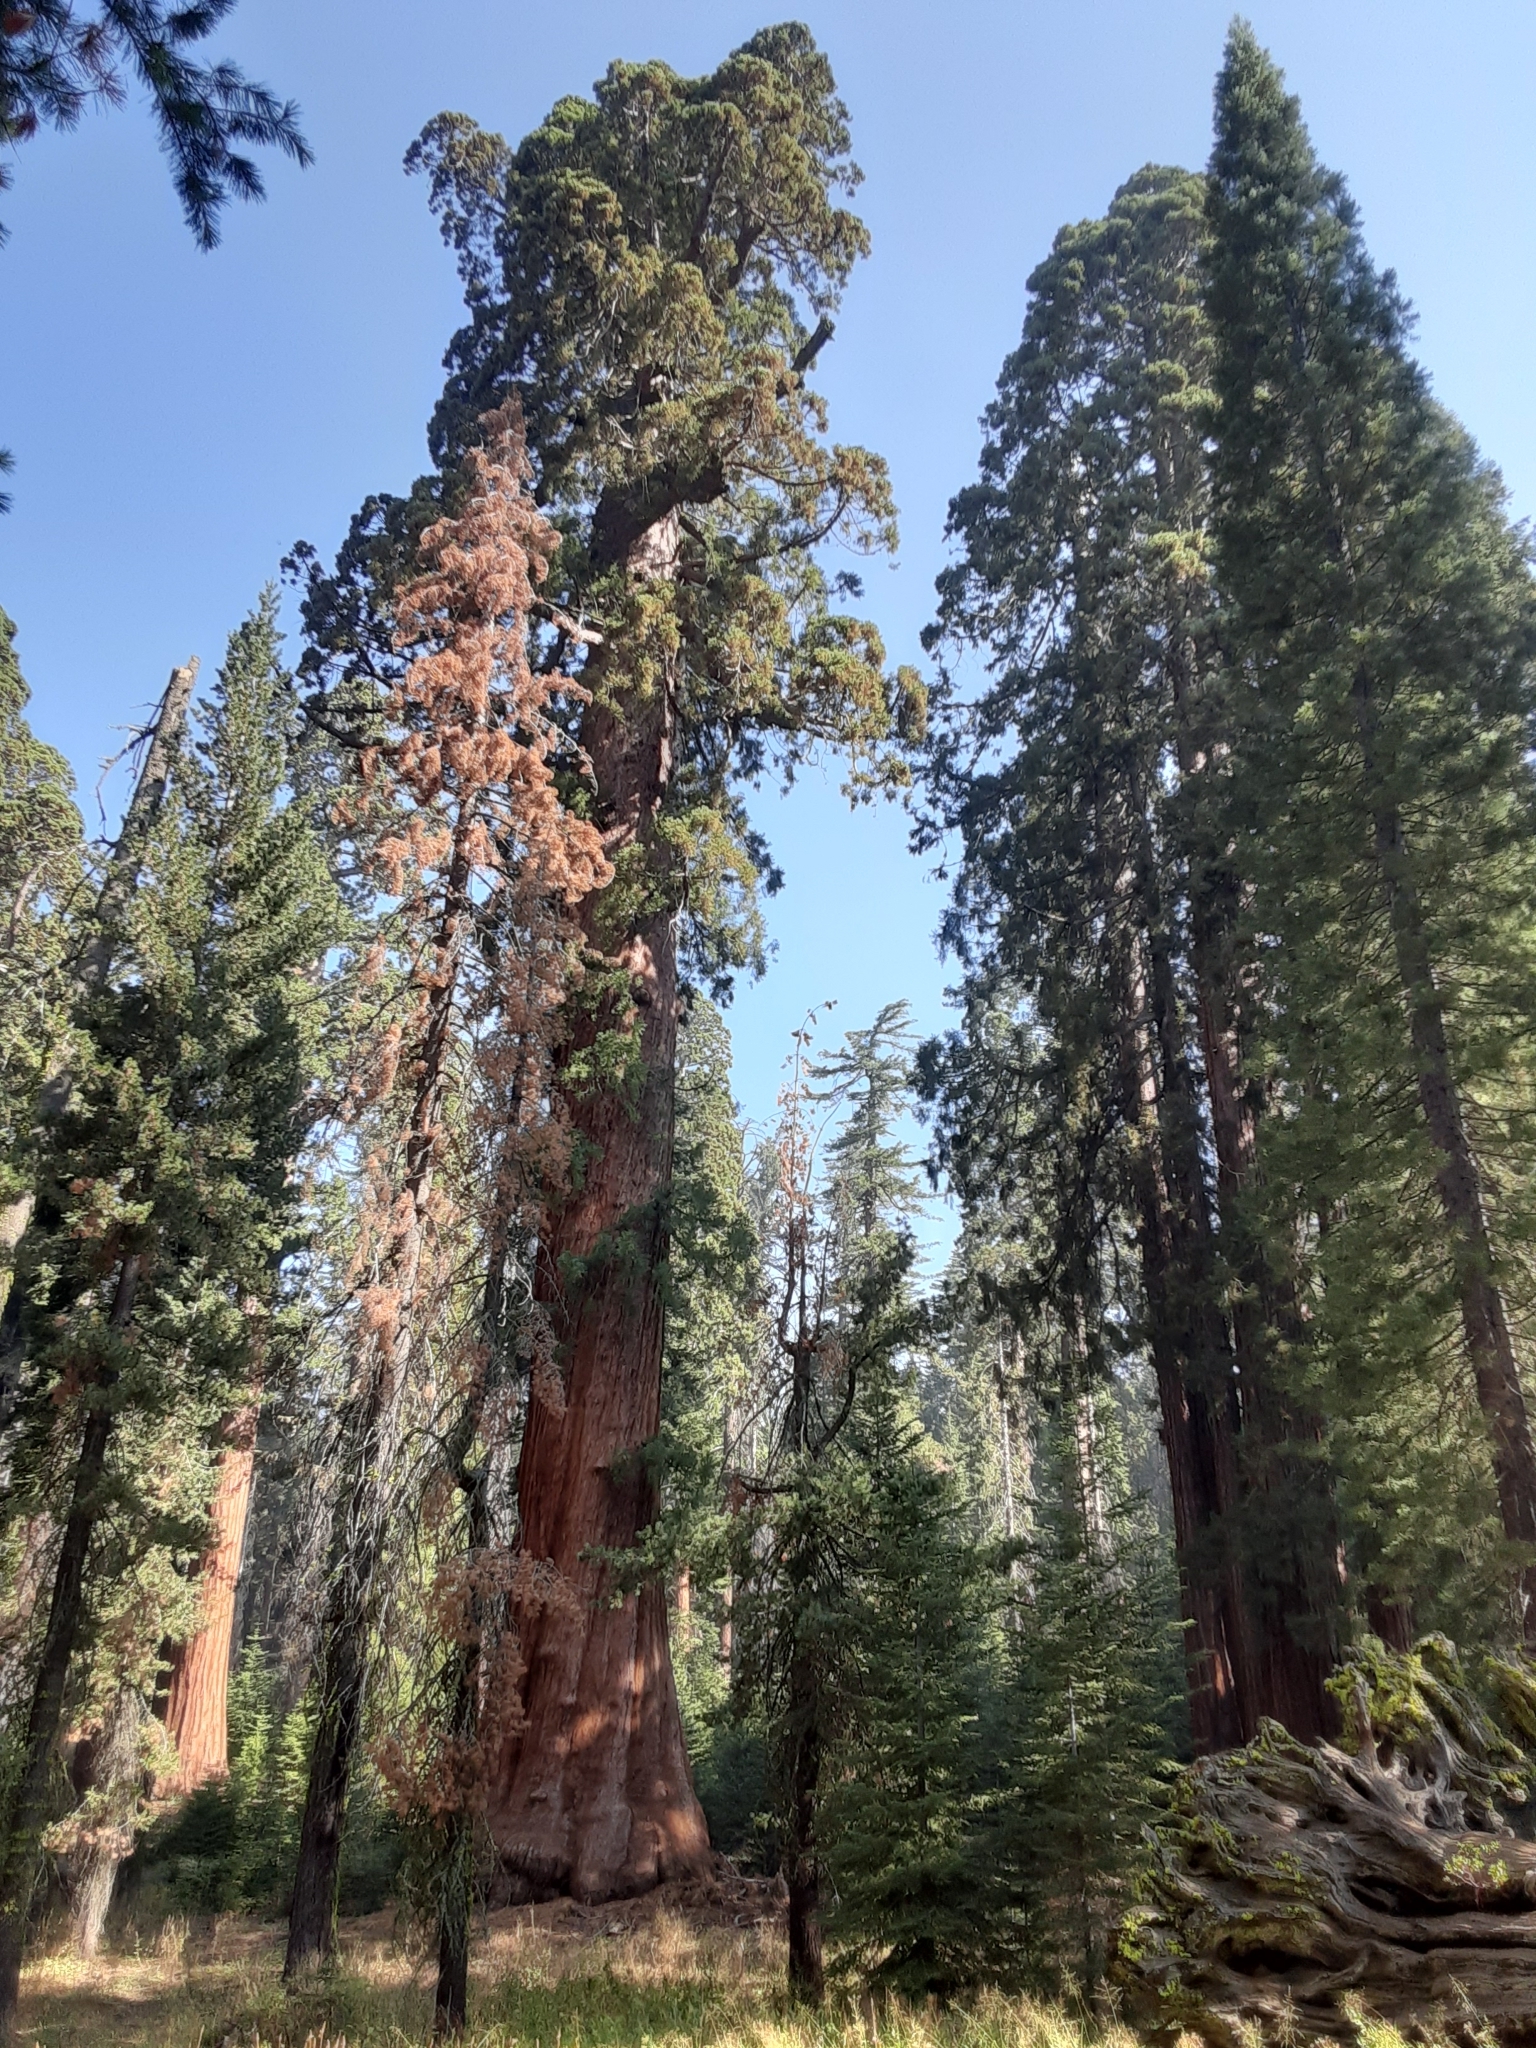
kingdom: Plantae
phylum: Tracheophyta
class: Pinopsida
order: Pinales
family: Cupressaceae
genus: Sequoiadendron
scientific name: Sequoiadendron giganteum
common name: Wellingtonia
